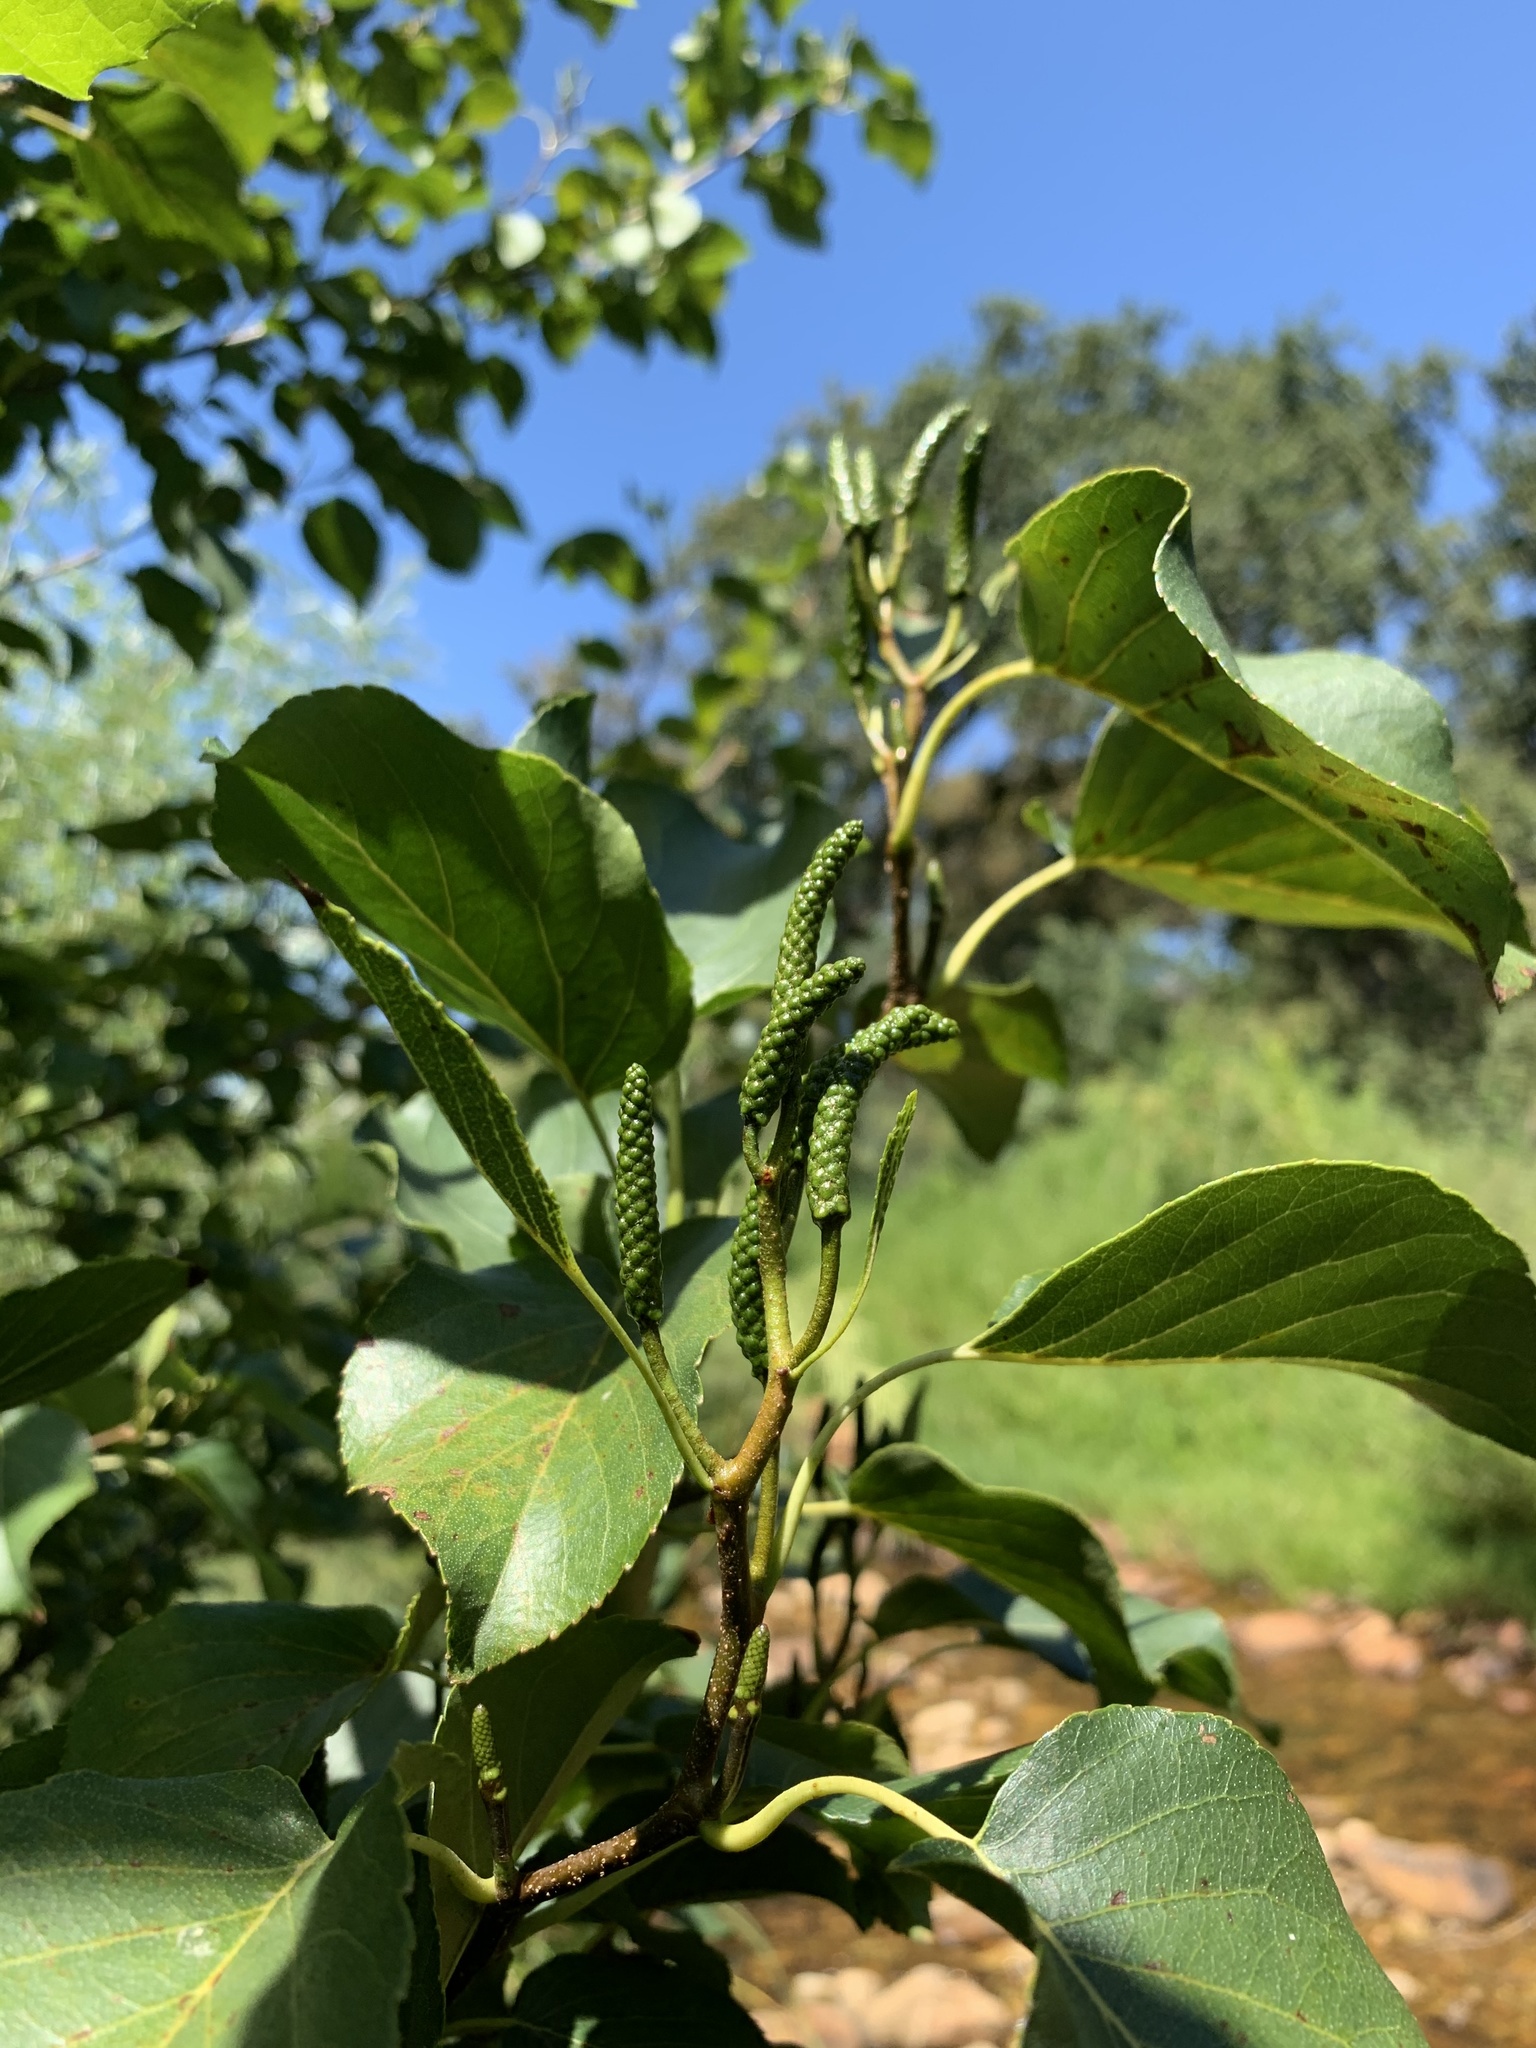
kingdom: Plantae
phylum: Tracheophyta
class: Magnoliopsida
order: Fagales
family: Betulaceae
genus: Alnus
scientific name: Alnus glutinosa
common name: Black alder
